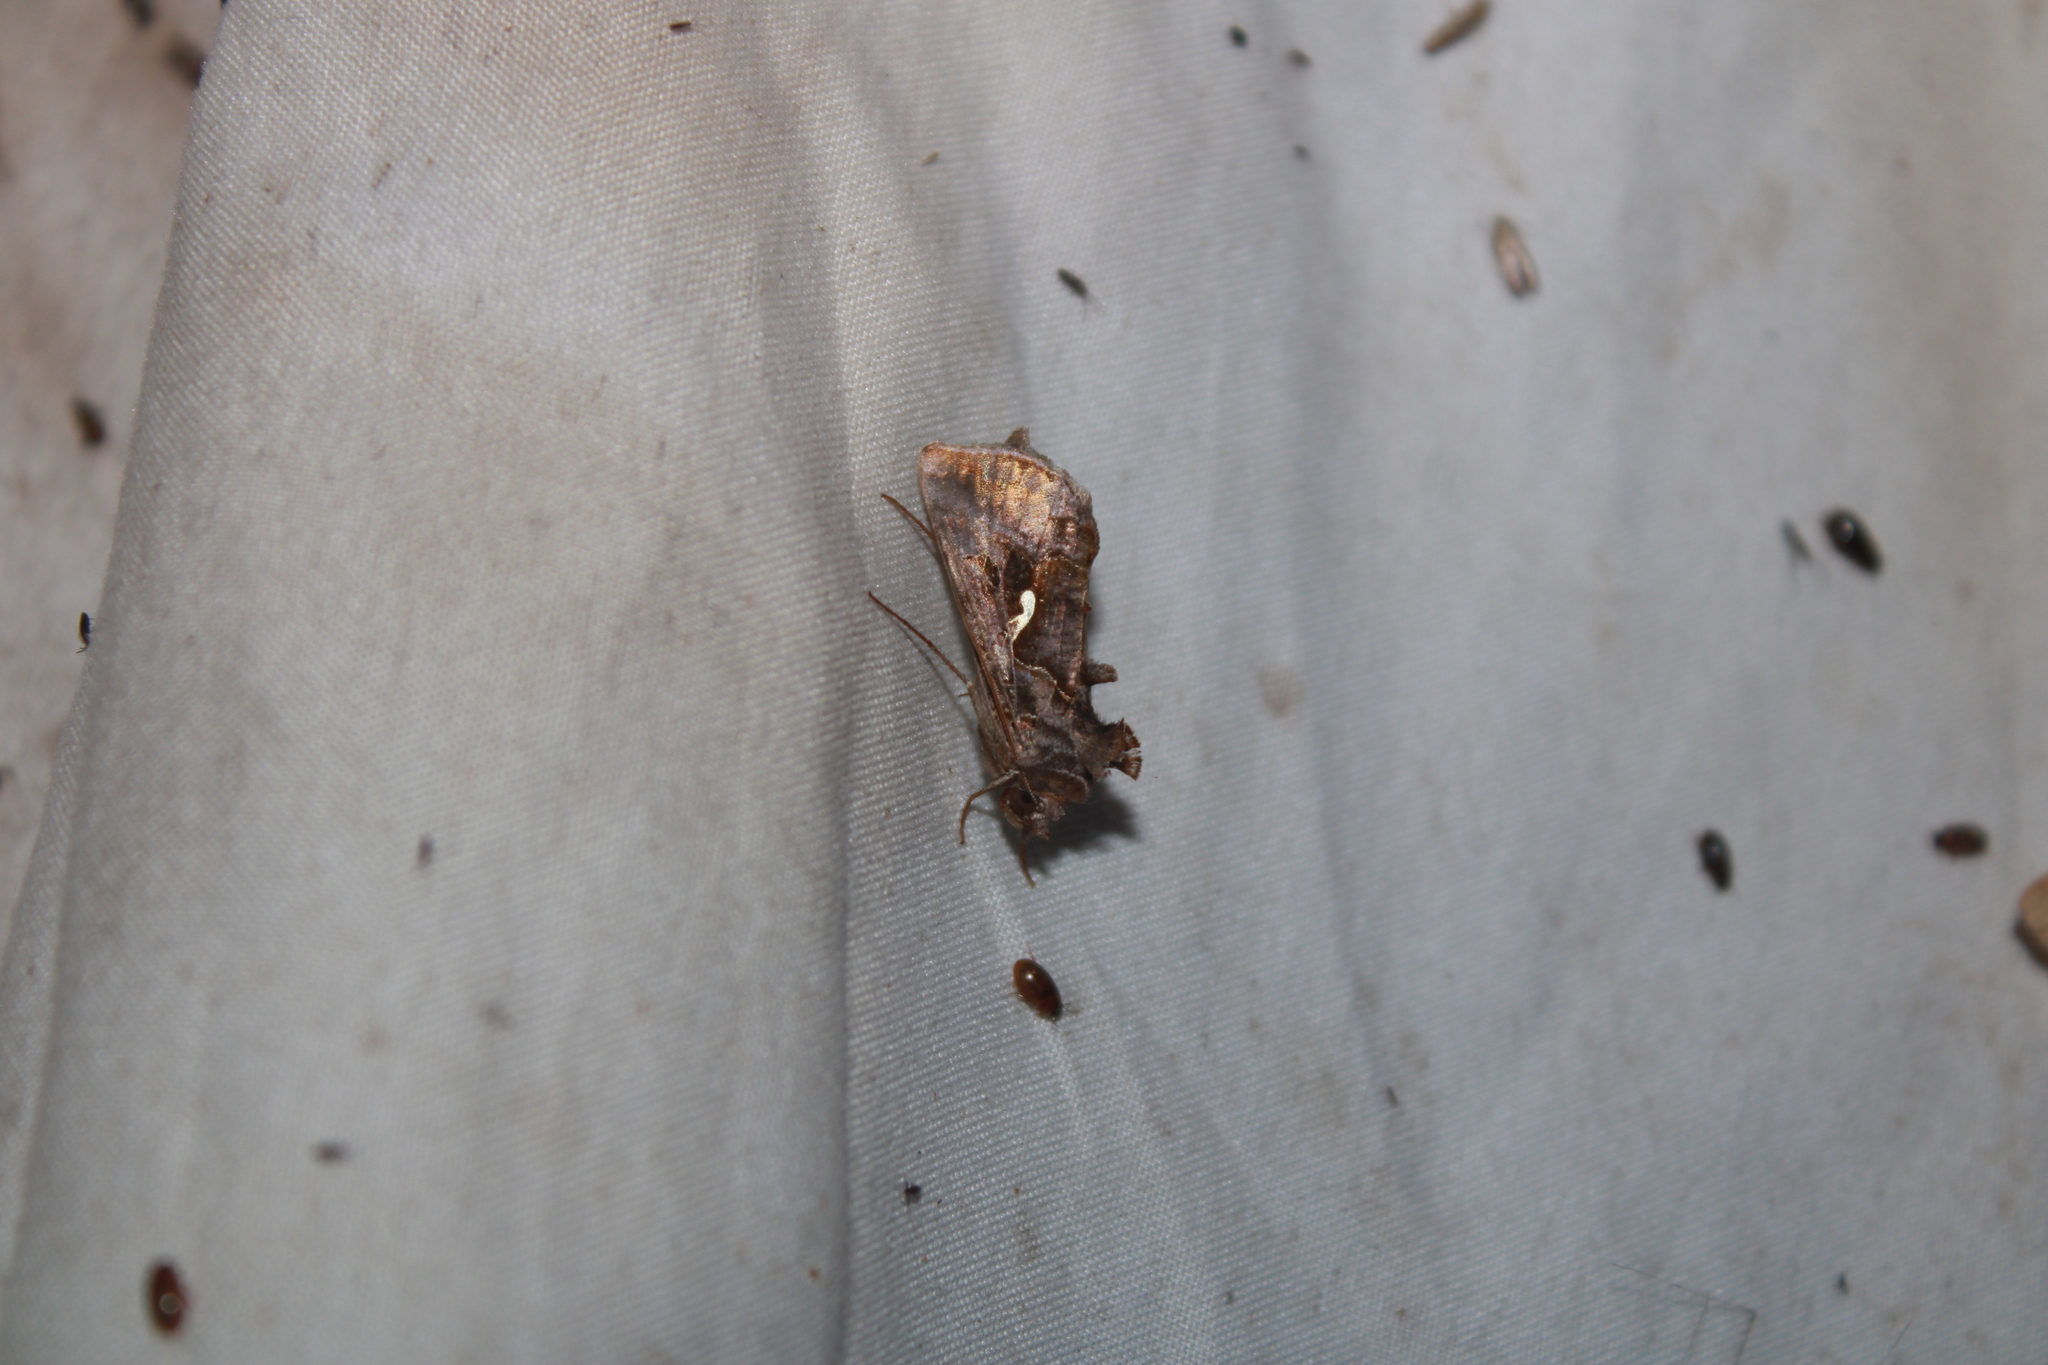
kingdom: Animalia
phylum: Arthropoda
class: Insecta
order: Lepidoptera
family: Noctuidae
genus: Autographa
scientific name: Autographa precationis
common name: Common looper moth
